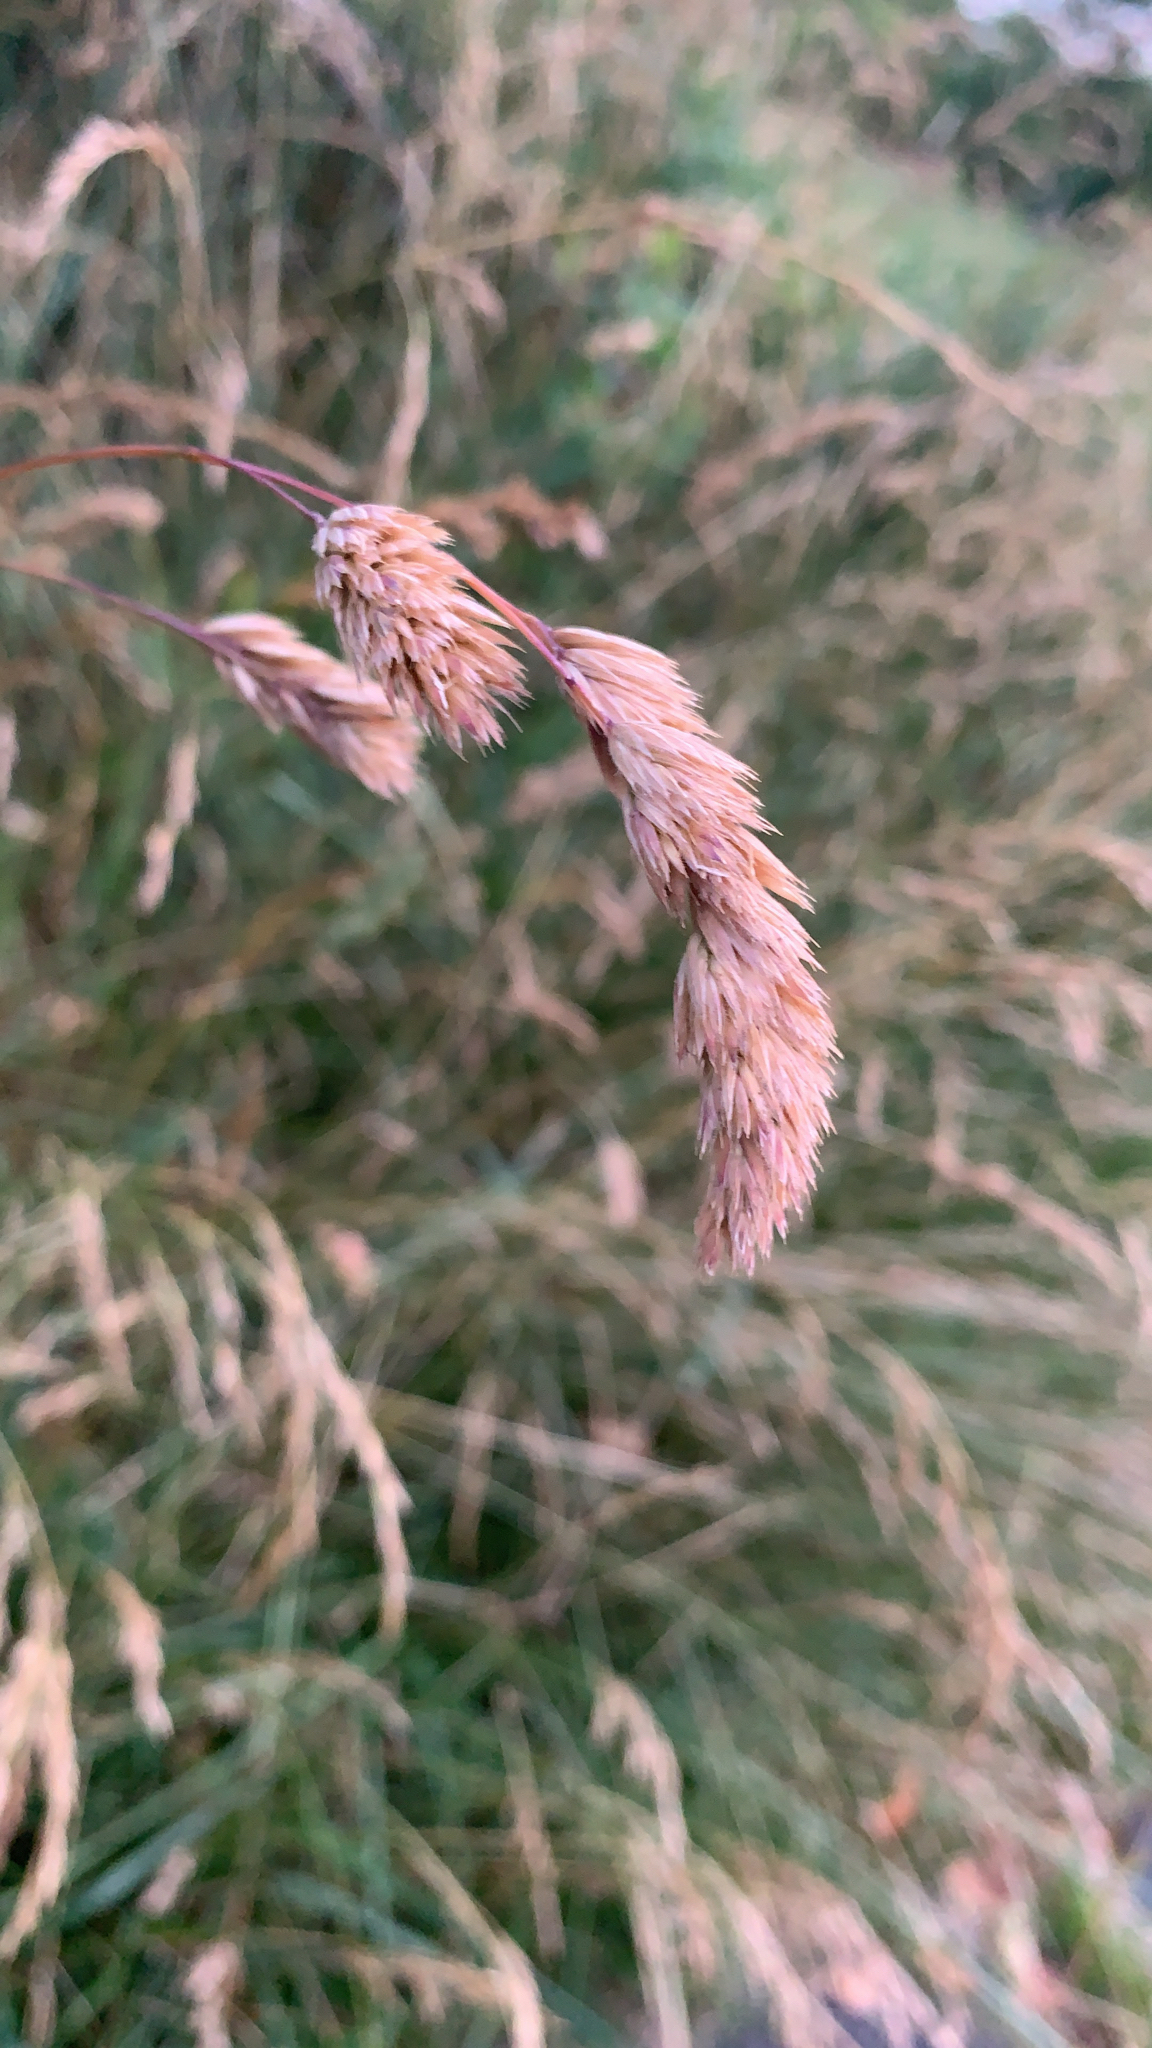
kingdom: Plantae
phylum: Tracheophyta
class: Liliopsida
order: Poales
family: Poaceae
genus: Dactylis
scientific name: Dactylis glomerata
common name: Orchardgrass
